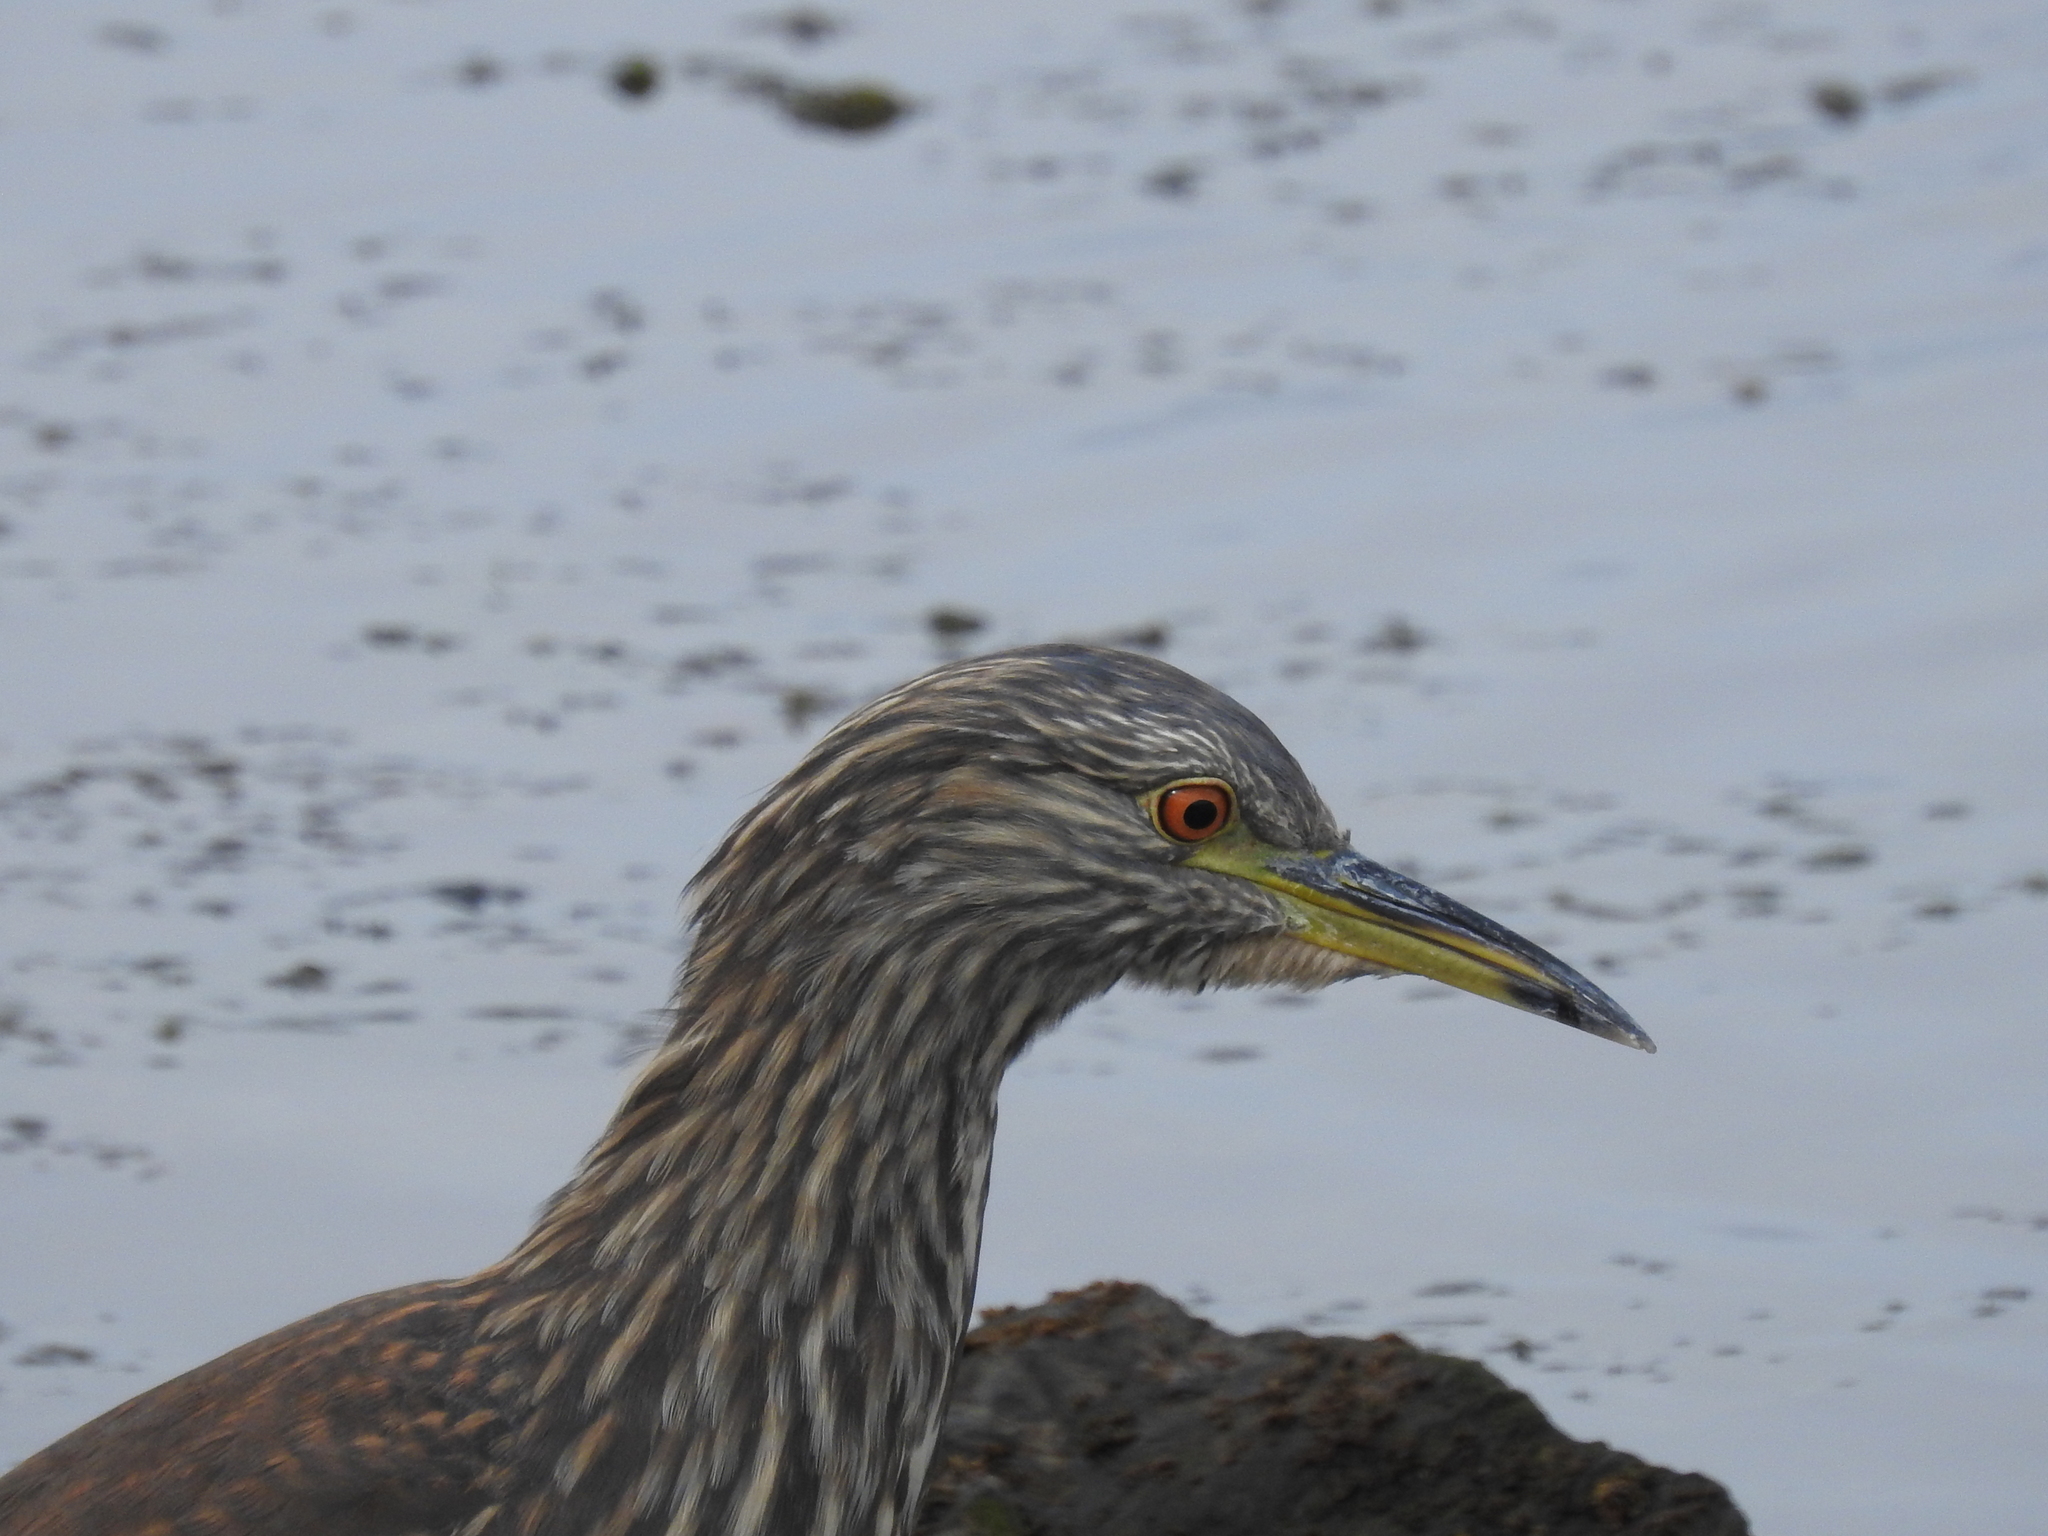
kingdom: Animalia
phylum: Chordata
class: Aves
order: Pelecaniformes
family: Ardeidae
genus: Nycticorax
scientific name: Nycticorax nycticorax
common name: Black-crowned night heron
